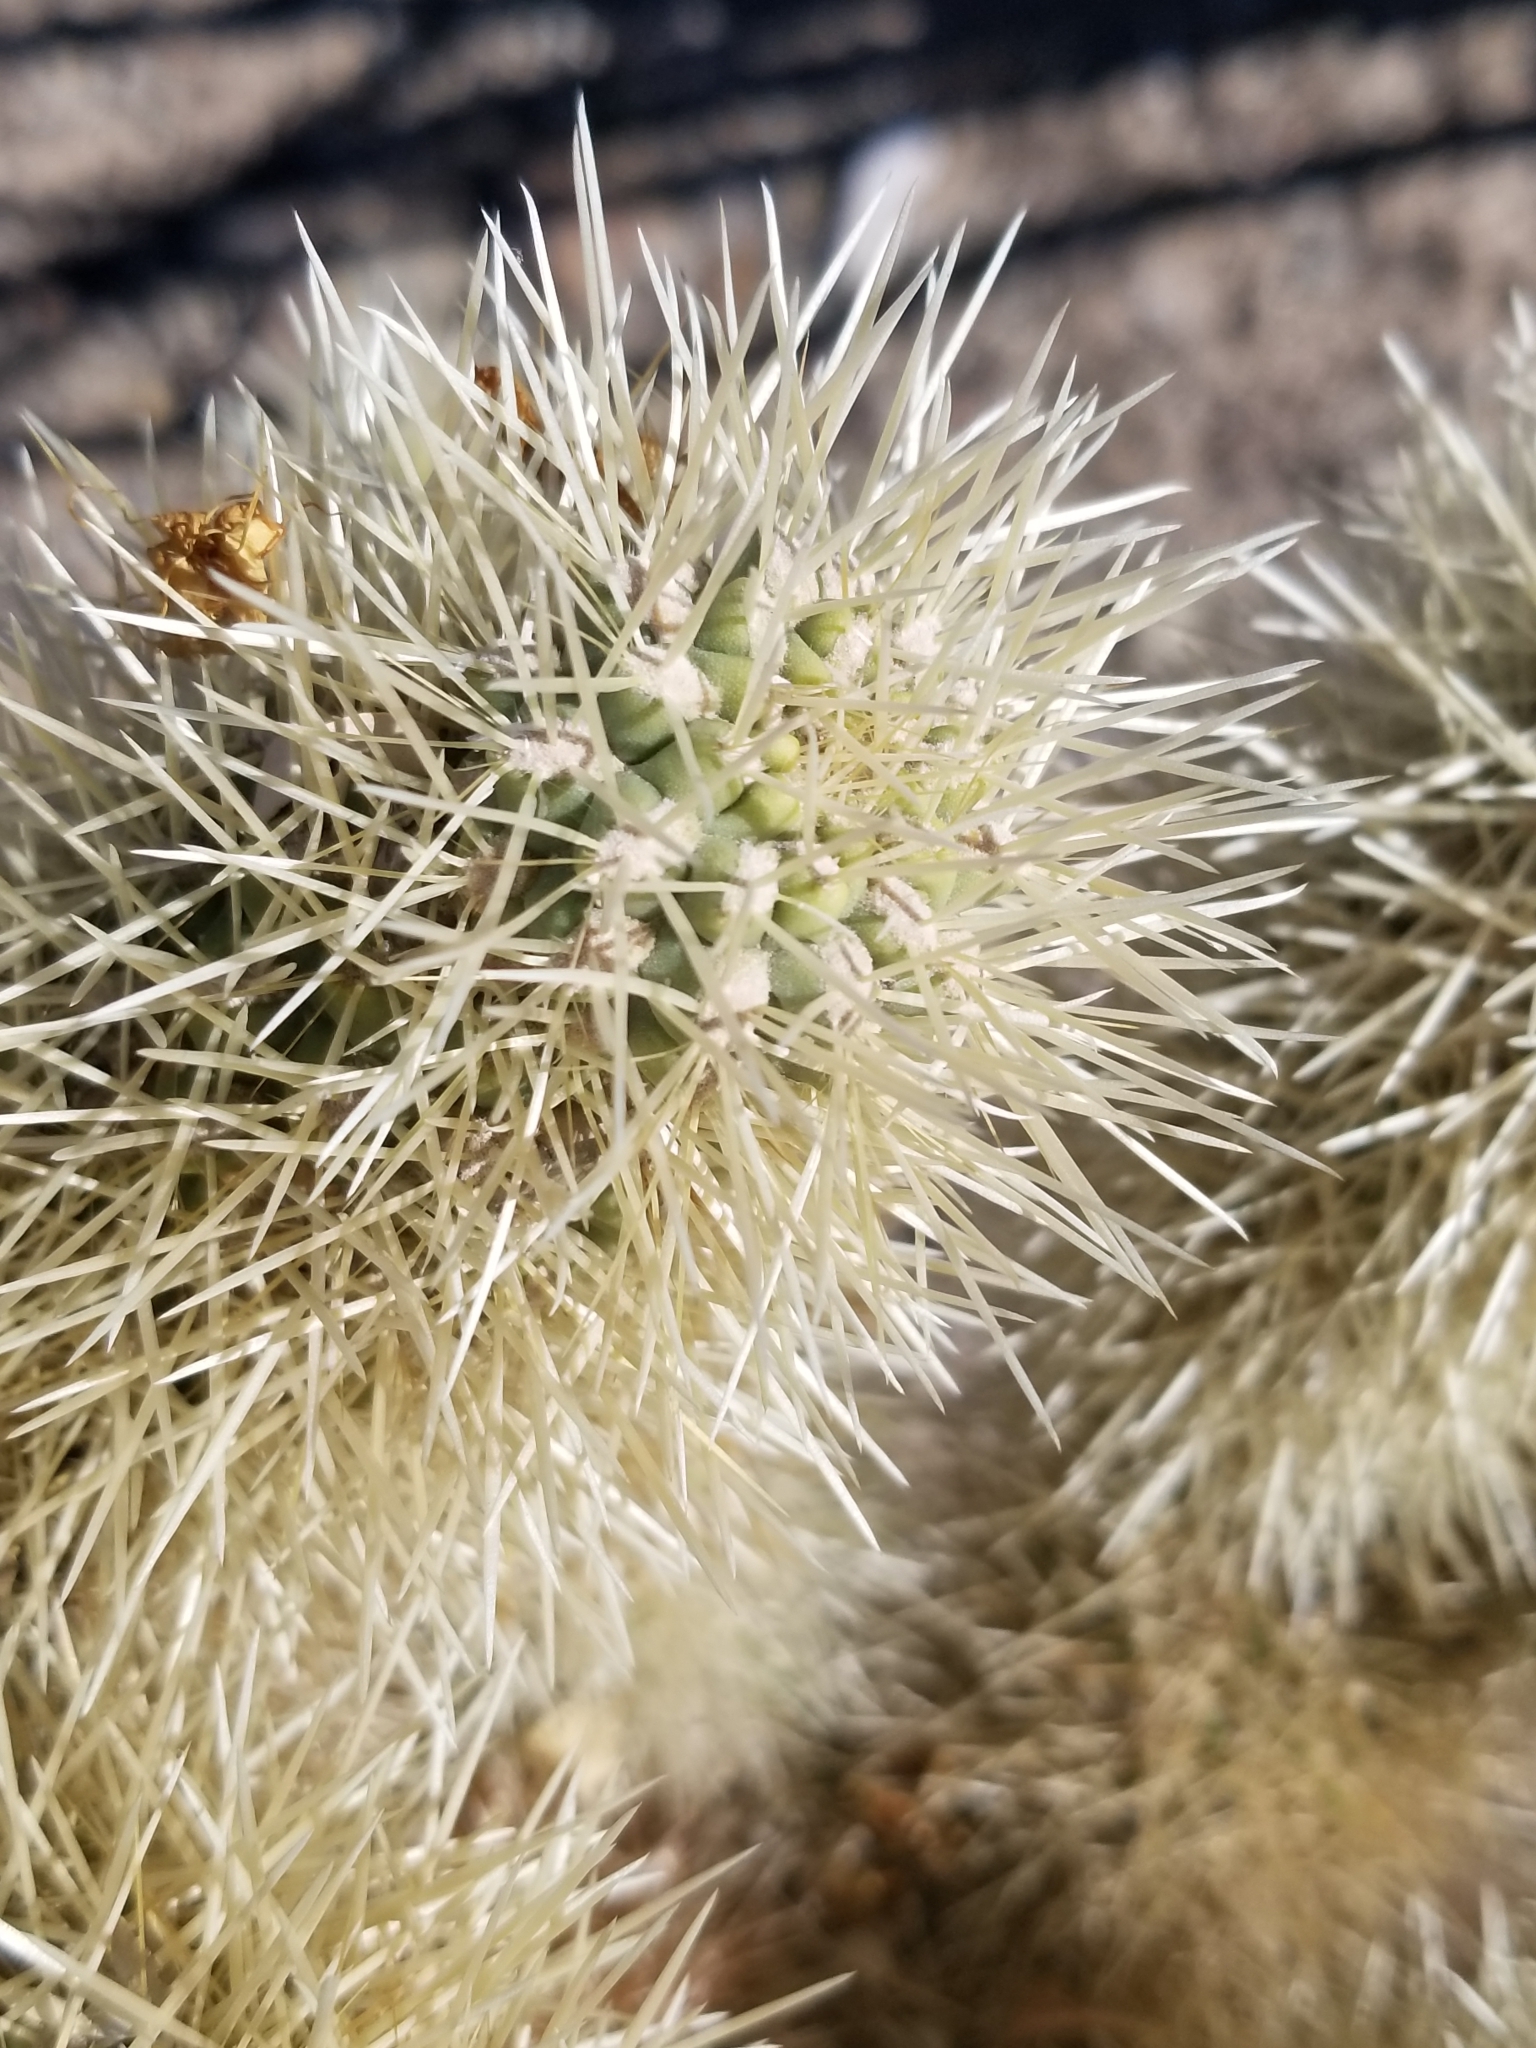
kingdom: Plantae
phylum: Tracheophyta
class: Magnoliopsida
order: Caryophyllales
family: Cactaceae
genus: Cylindropuntia
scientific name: Cylindropuntia fosbergii
